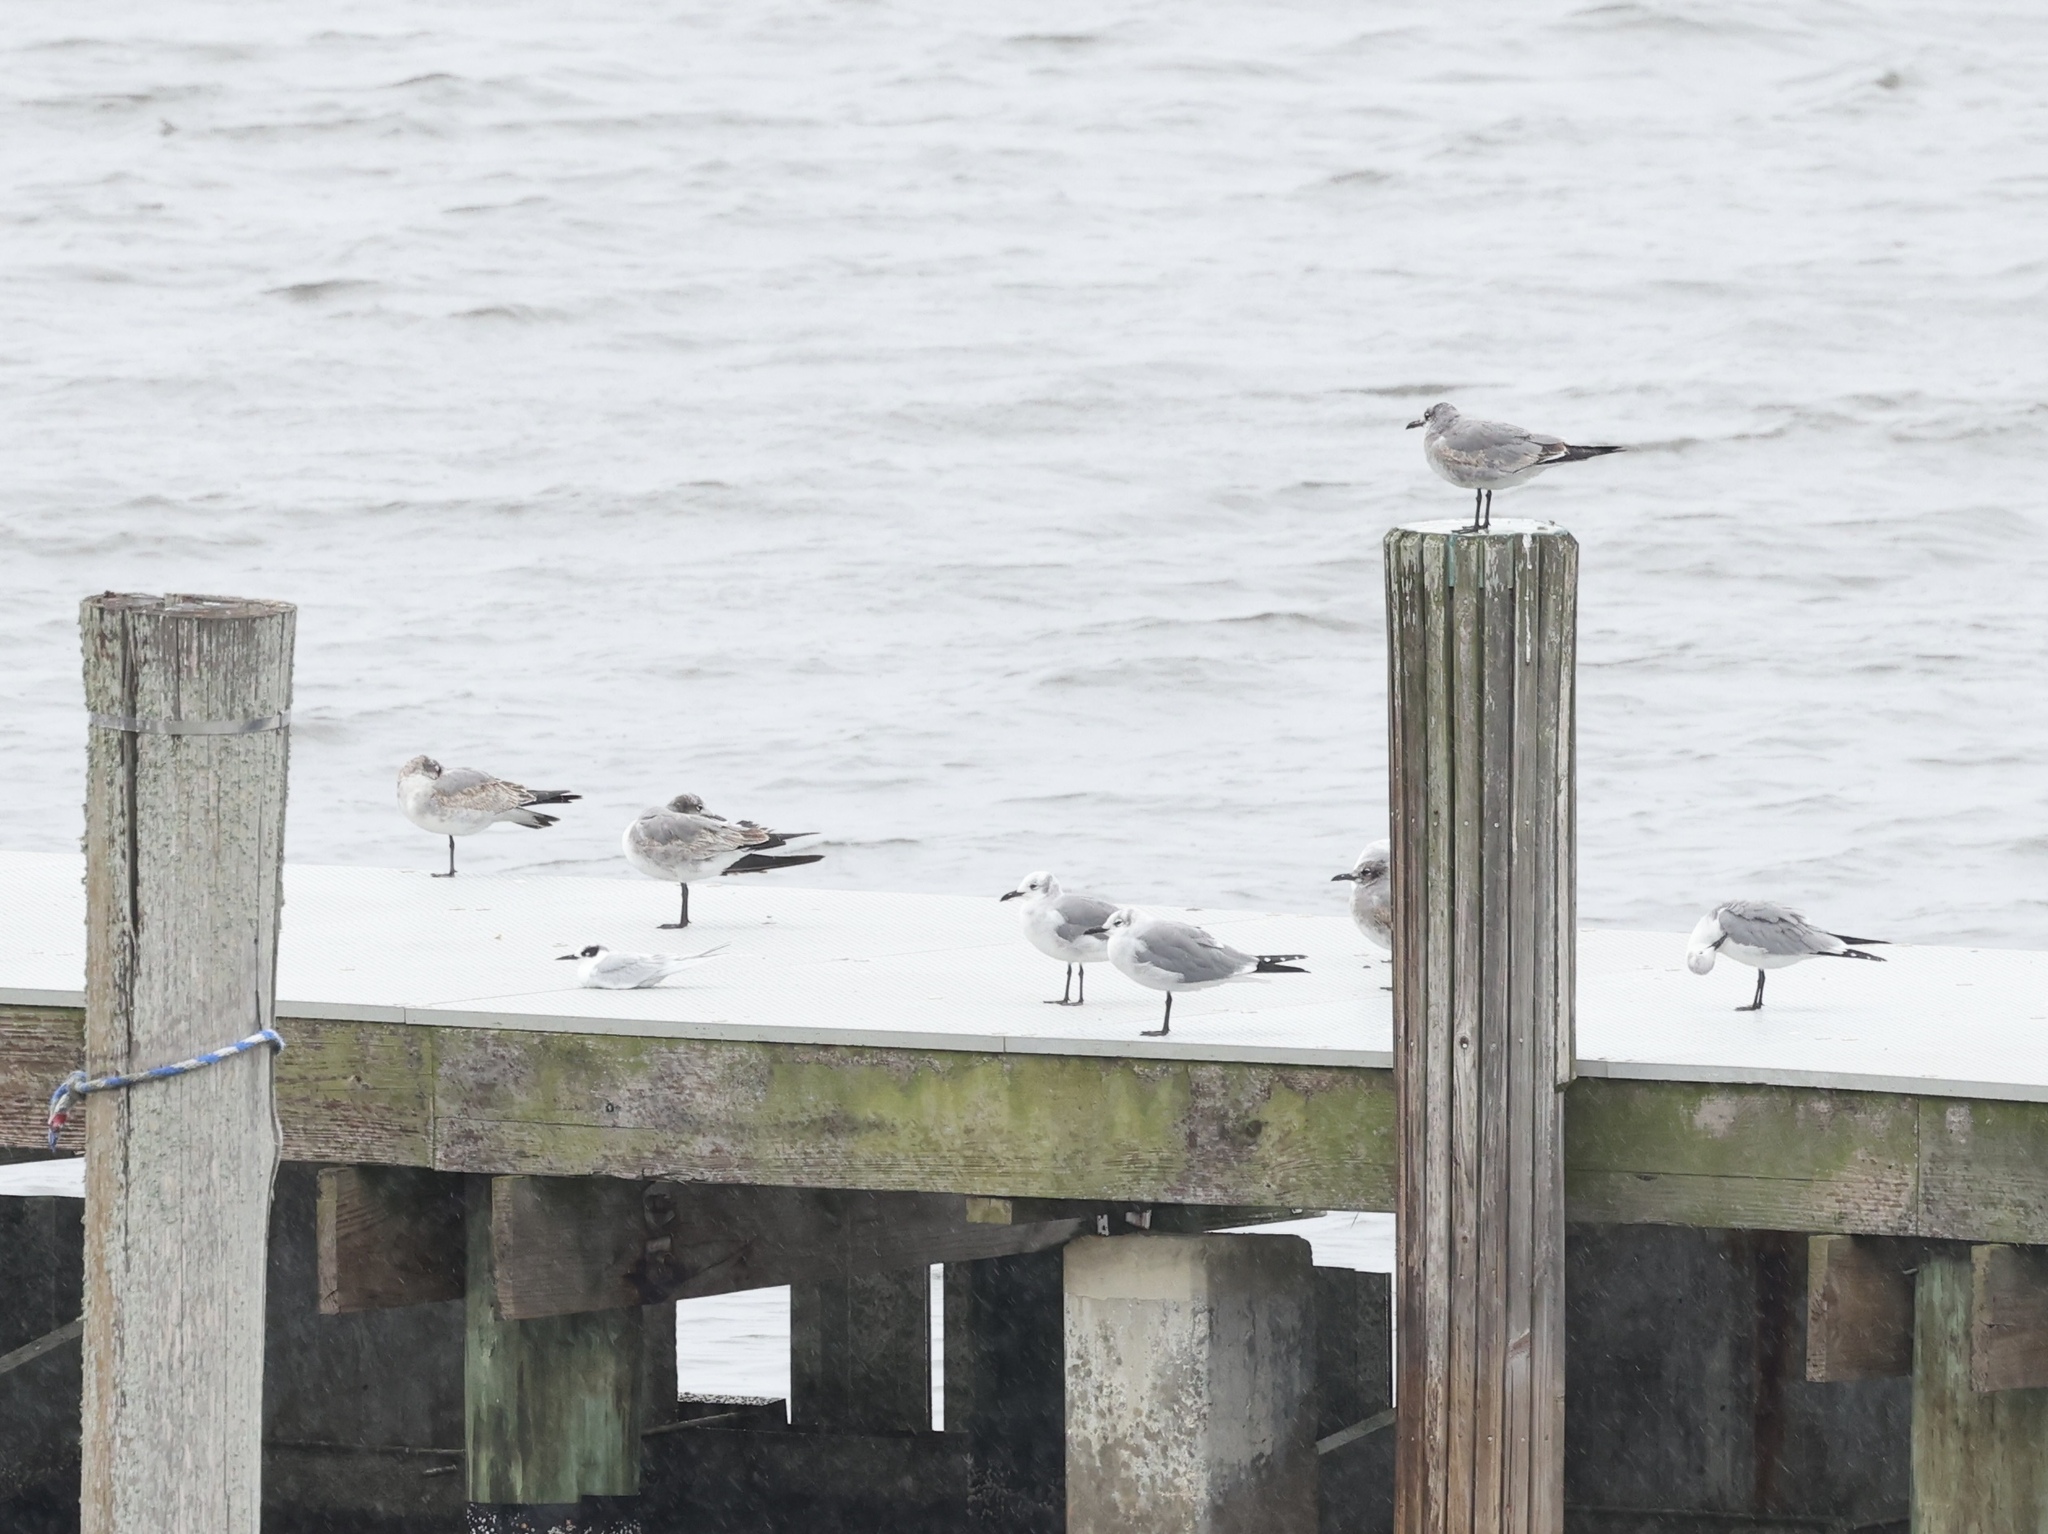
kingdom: Animalia
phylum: Chordata
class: Aves
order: Charadriiformes
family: Laridae
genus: Sterna
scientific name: Sterna forsteri
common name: Forster's tern
